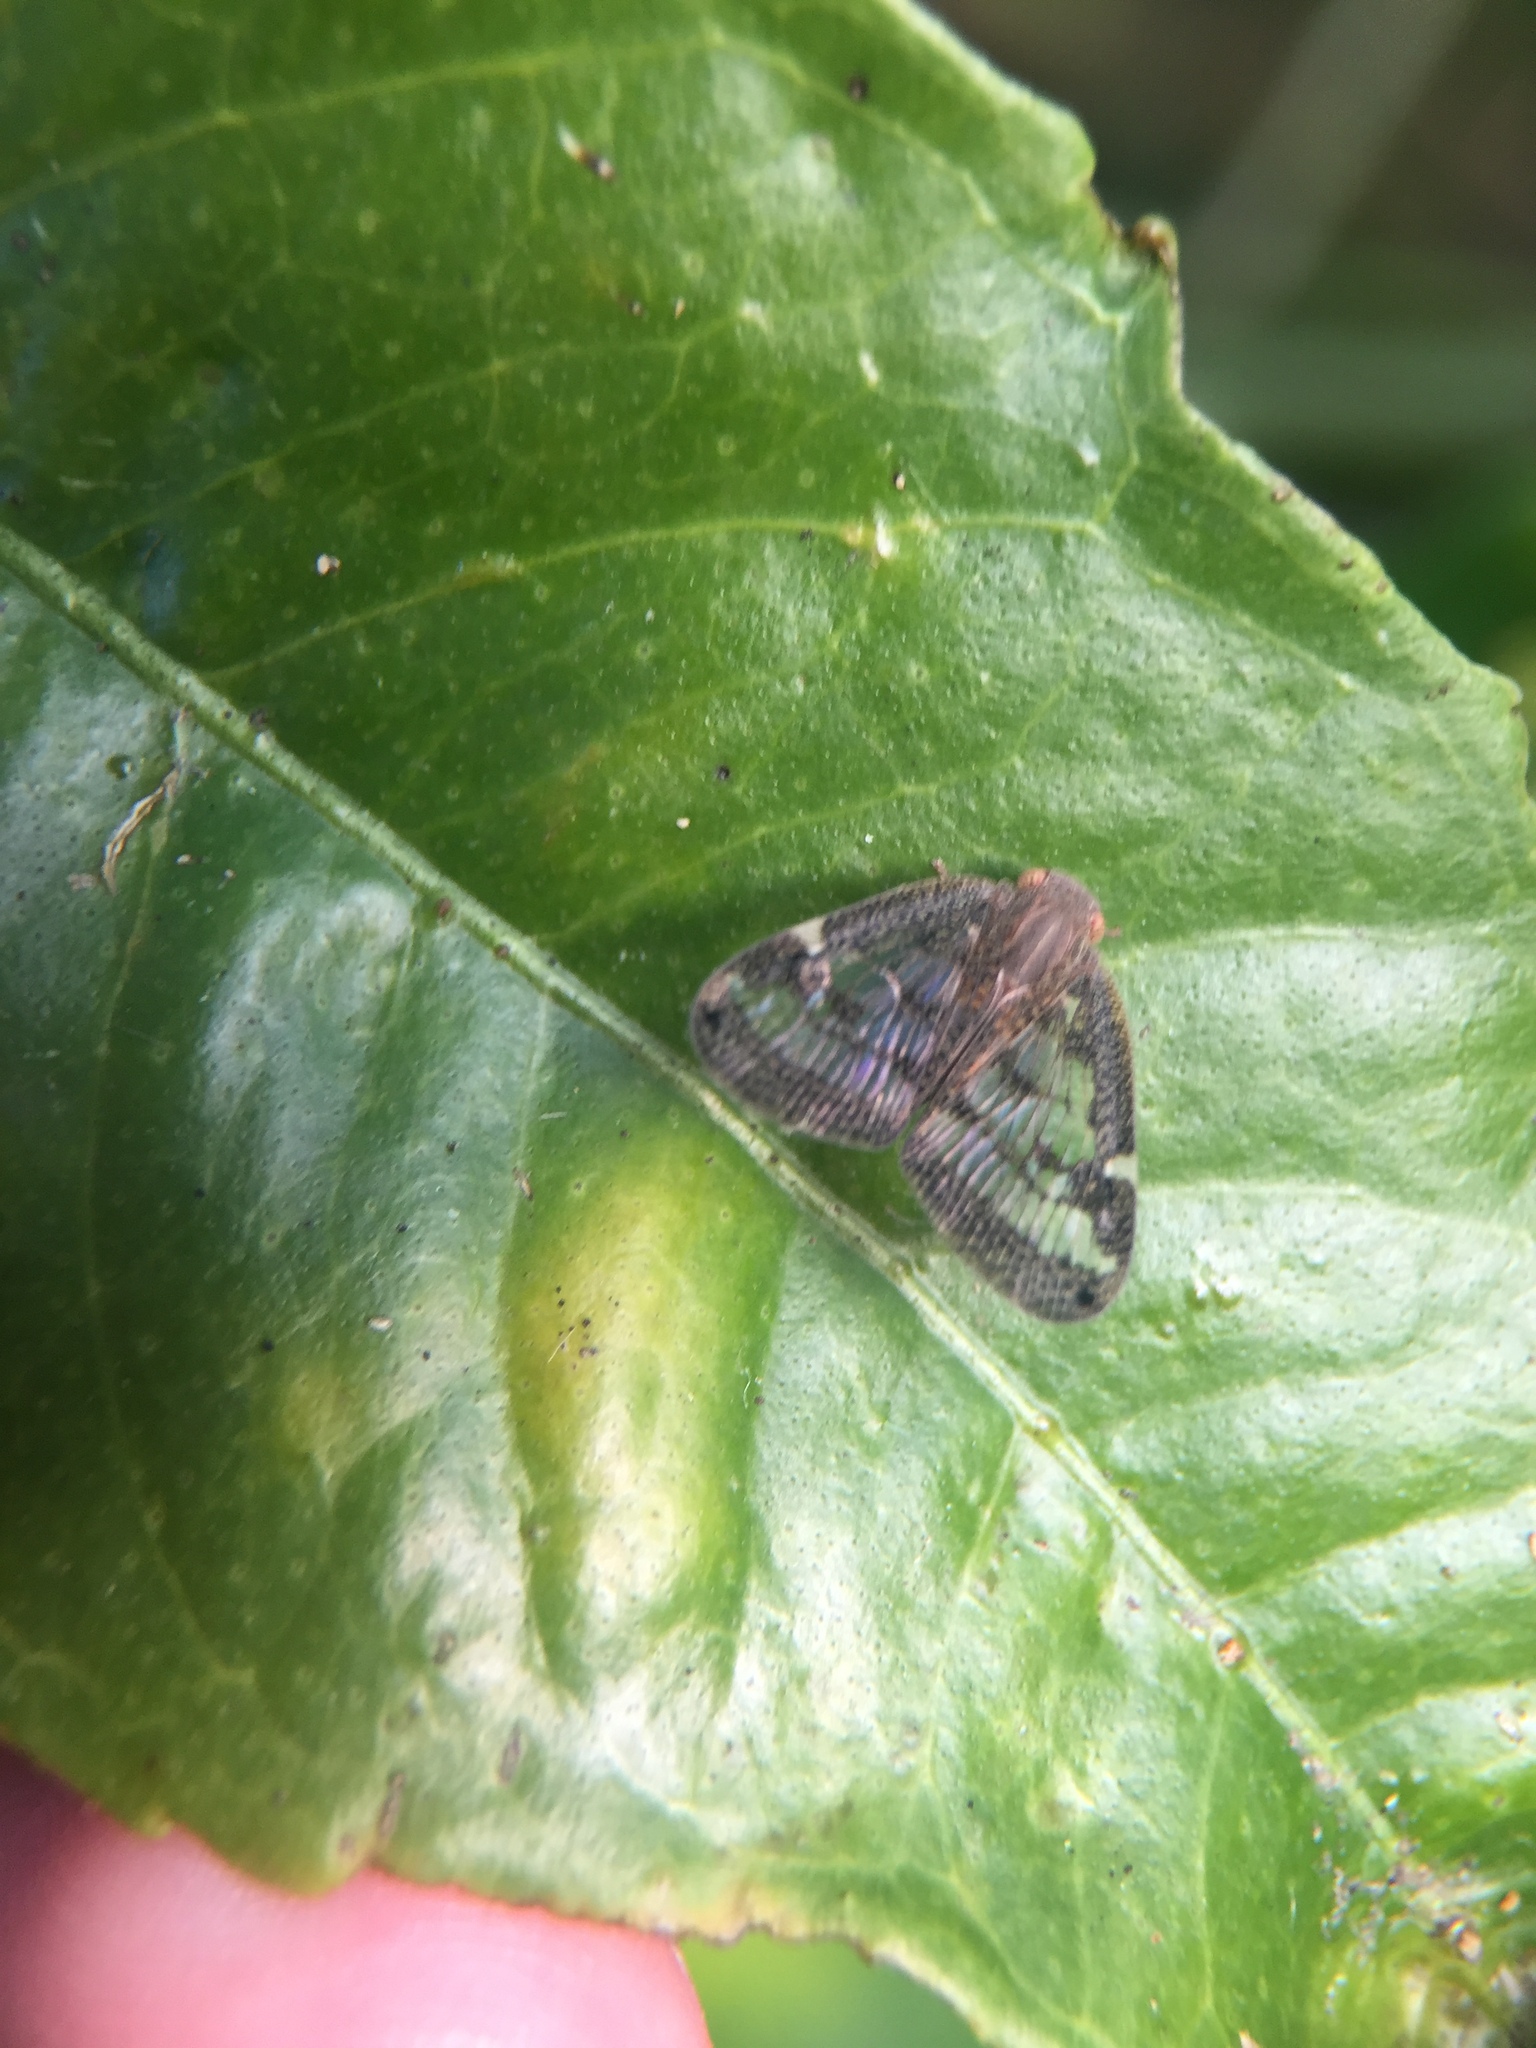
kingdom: Animalia
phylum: Arthropoda
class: Insecta
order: Hemiptera
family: Ricaniidae
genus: Scolypopa
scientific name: Scolypopa australis
